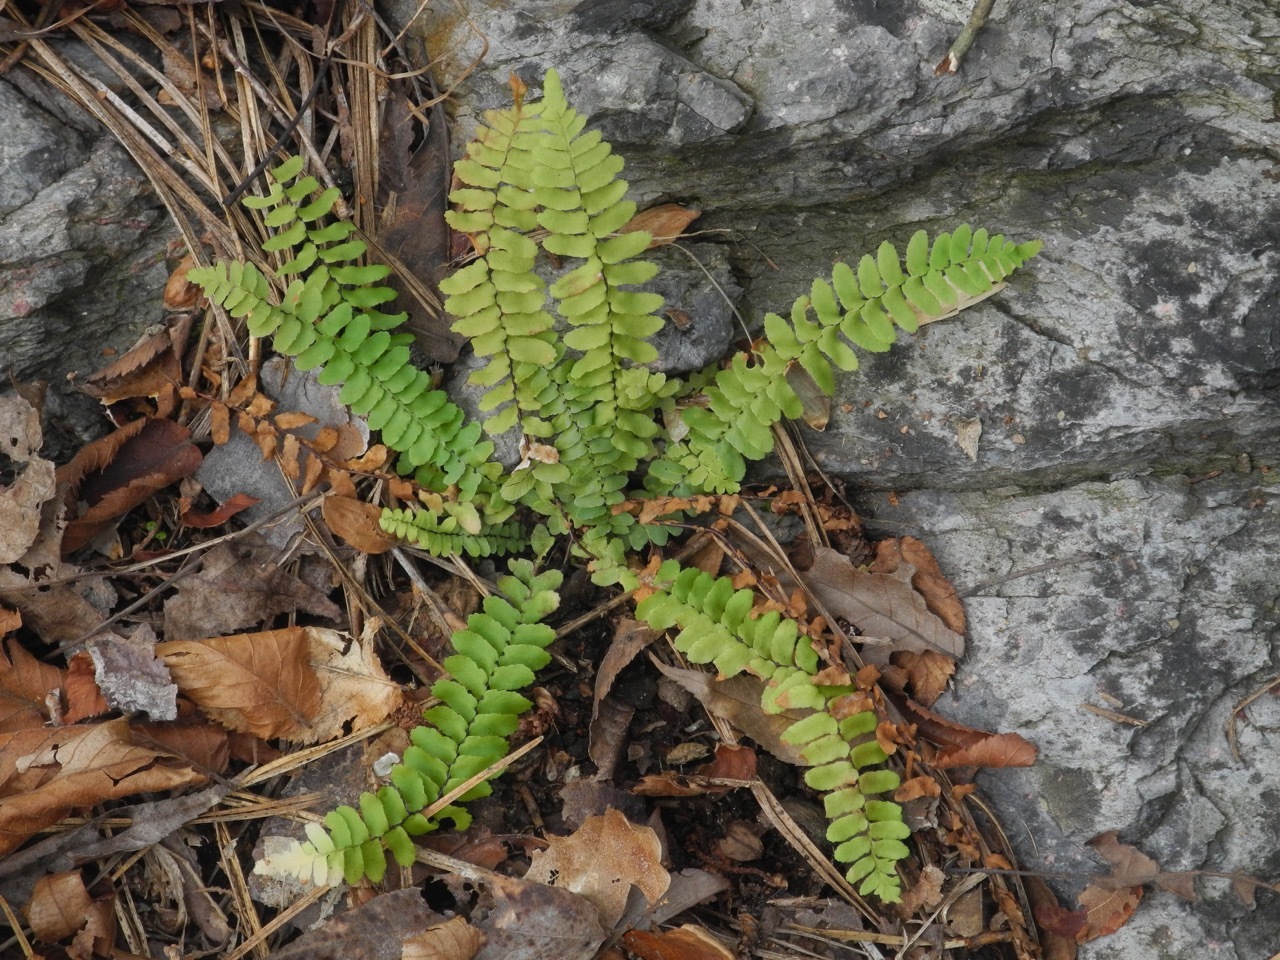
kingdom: Plantae
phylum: Tracheophyta
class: Polypodiopsida
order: Polypodiales
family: Aspleniaceae
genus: Asplenium
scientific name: Asplenium platyneuron
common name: Ebony spleenwort
